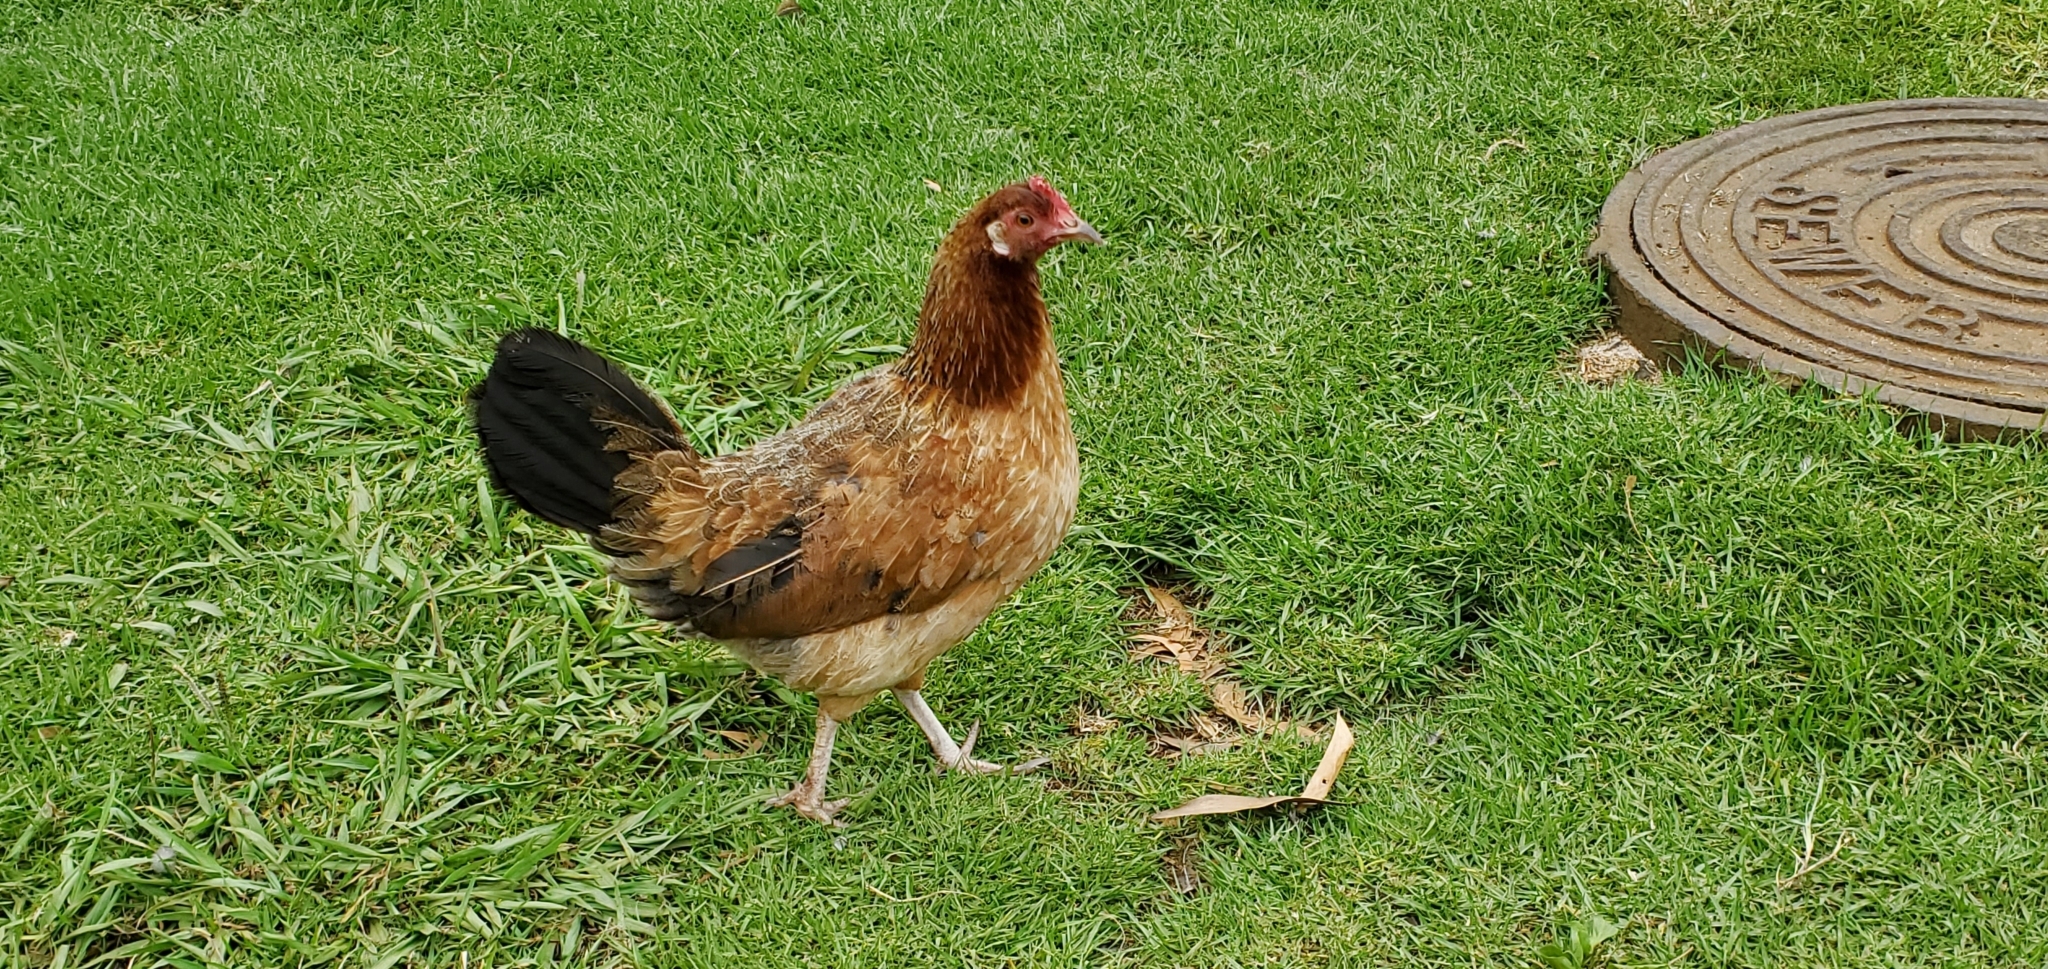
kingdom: Animalia
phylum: Chordata
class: Aves
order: Galliformes
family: Phasianidae
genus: Gallus
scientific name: Gallus gallus
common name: Red junglefowl
